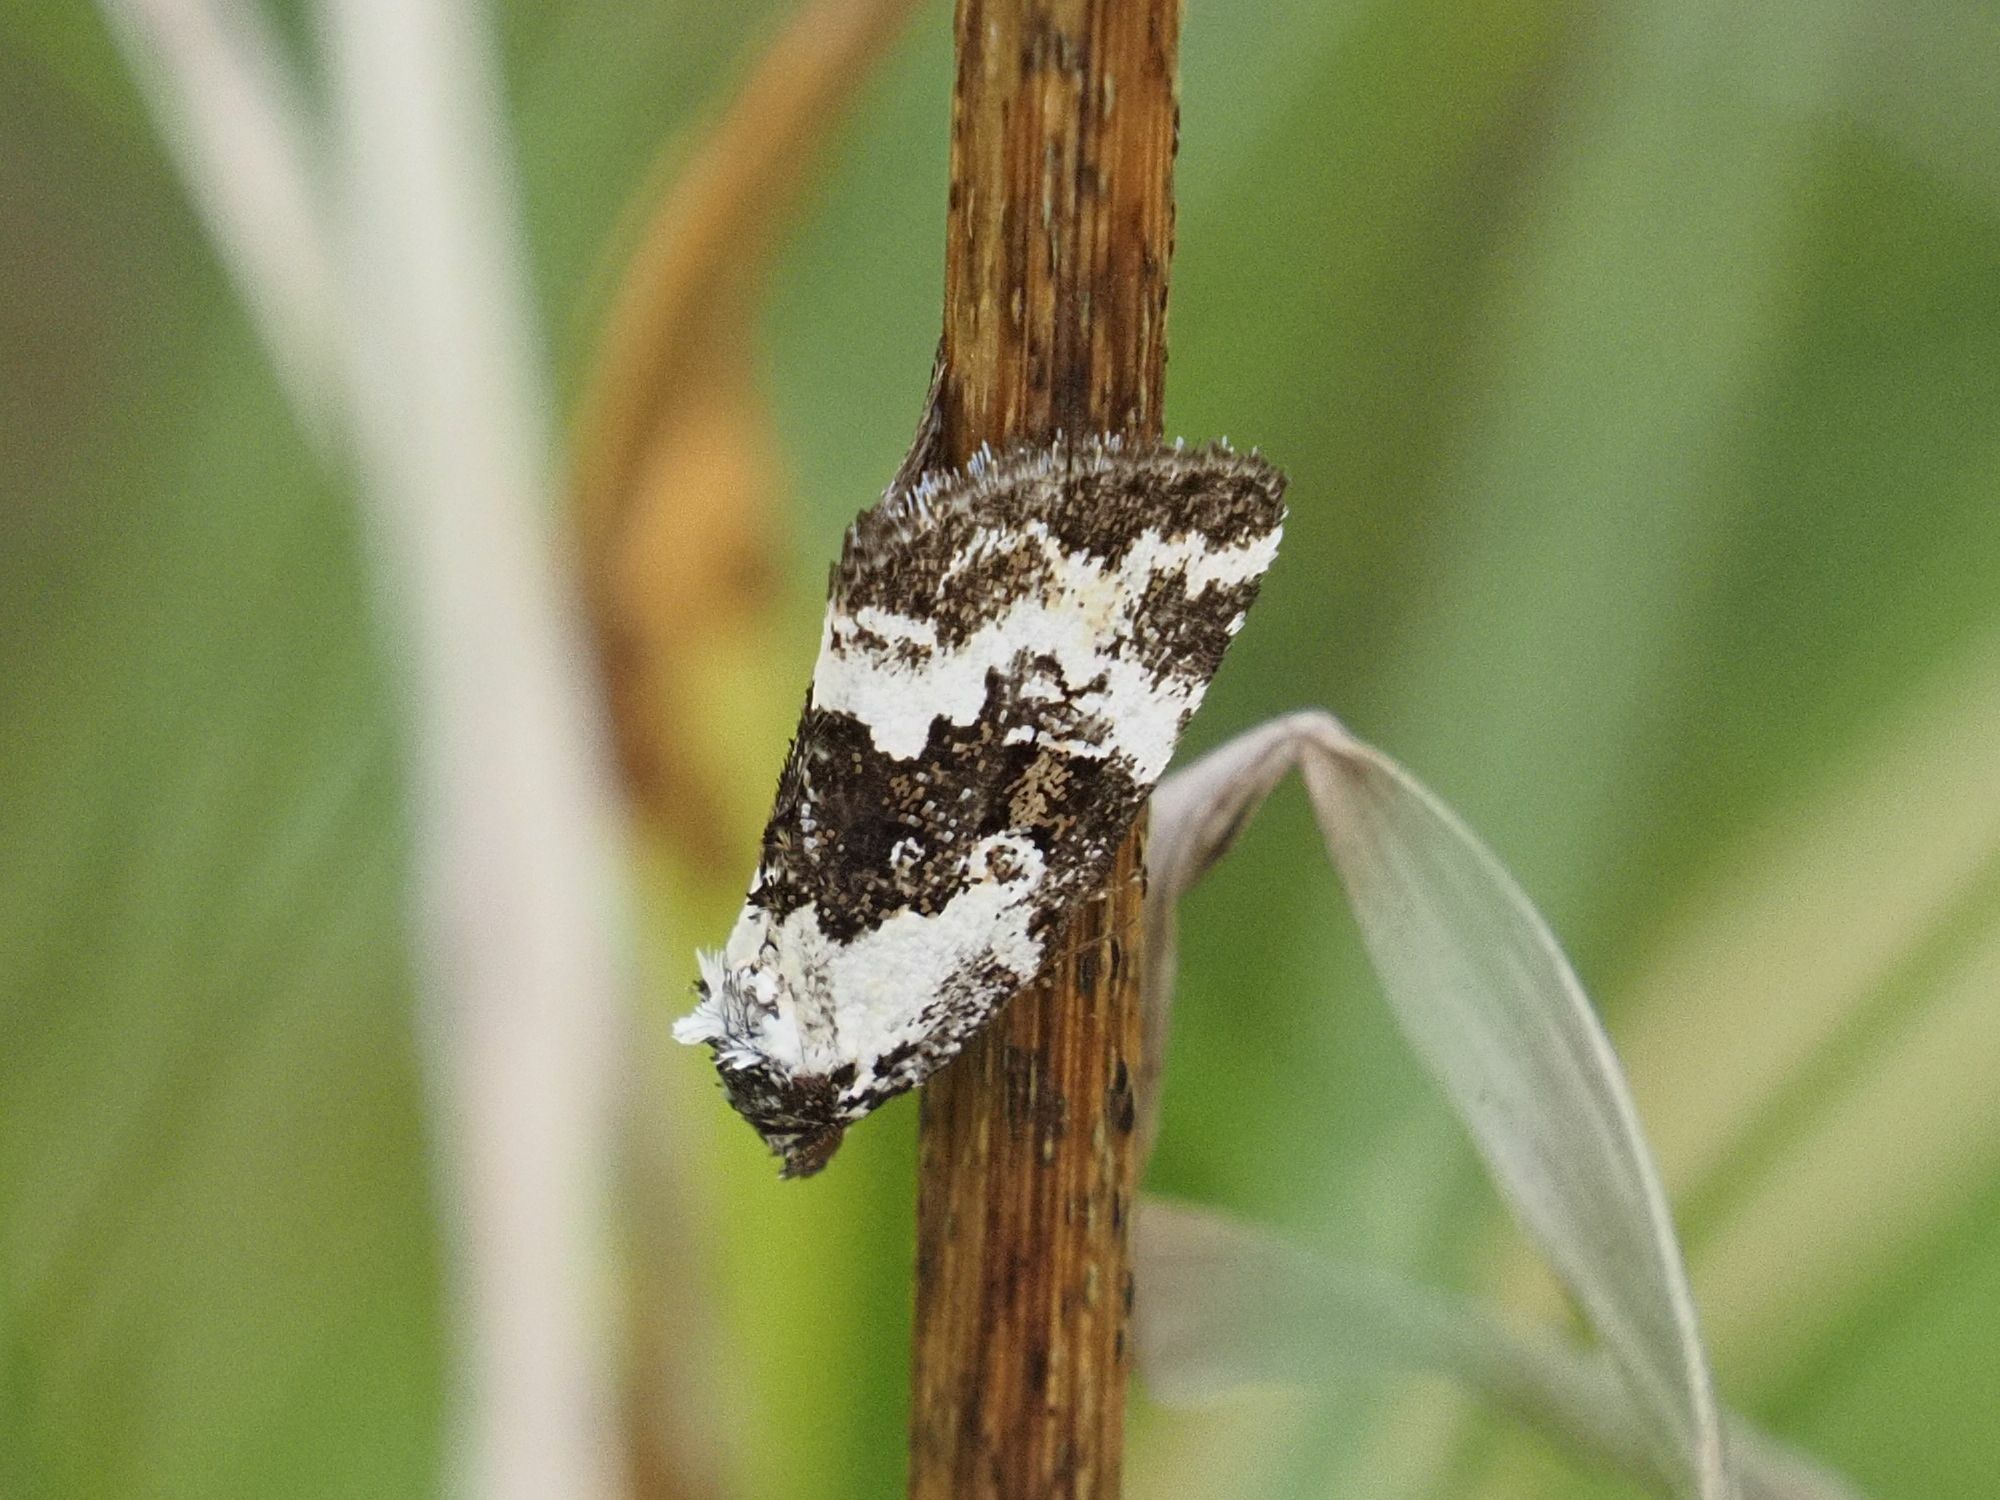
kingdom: Animalia
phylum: Arthropoda
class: Insecta
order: Lepidoptera
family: Noctuidae
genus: Deltote
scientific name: Deltote deceptoria
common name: Pretty marbled
